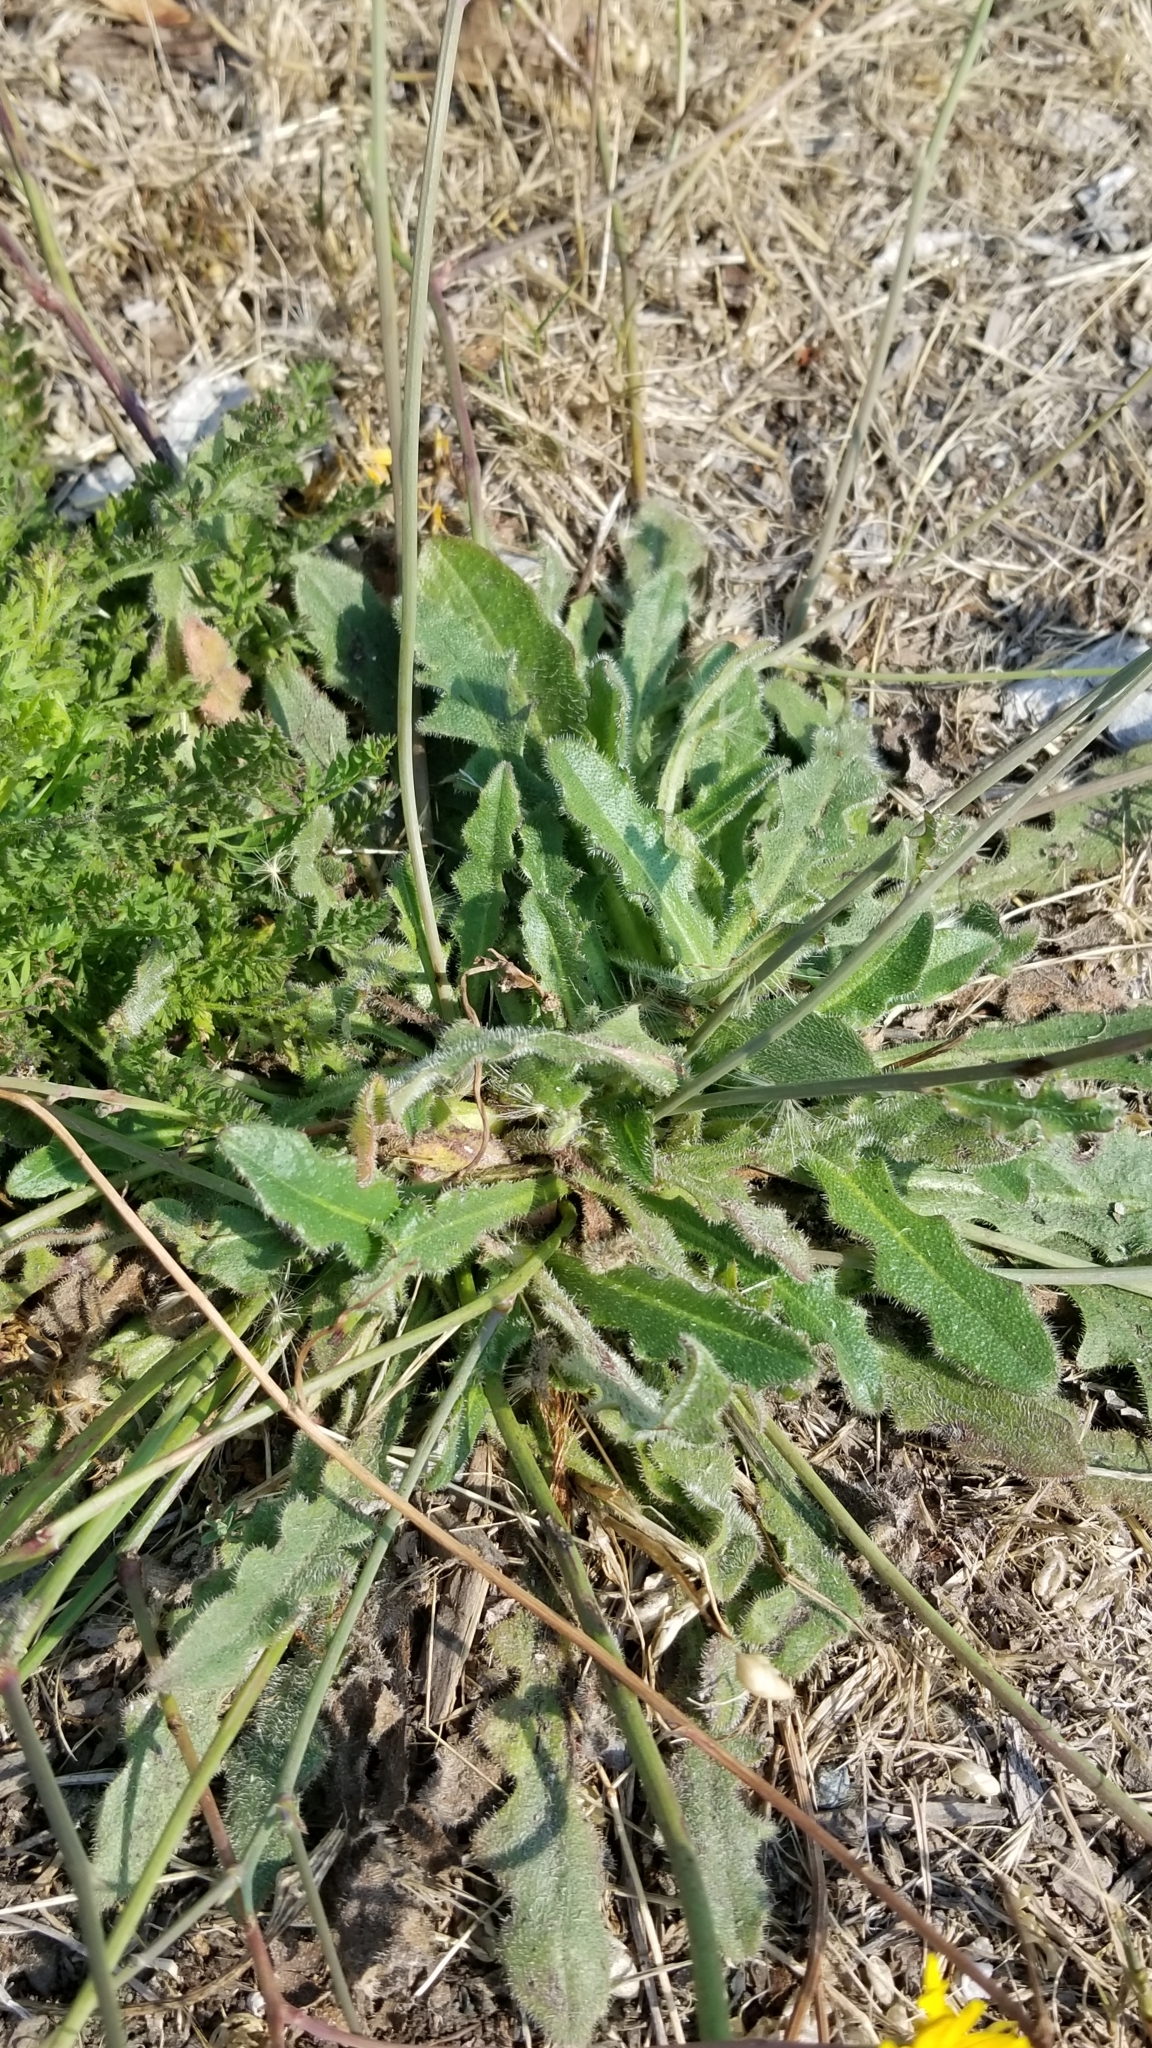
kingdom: Plantae
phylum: Tracheophyta
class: Magnoliopsida
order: Asterales
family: Asteraceae
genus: Hypochaeris
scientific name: Hypochaeris radicata
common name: Flatweed
